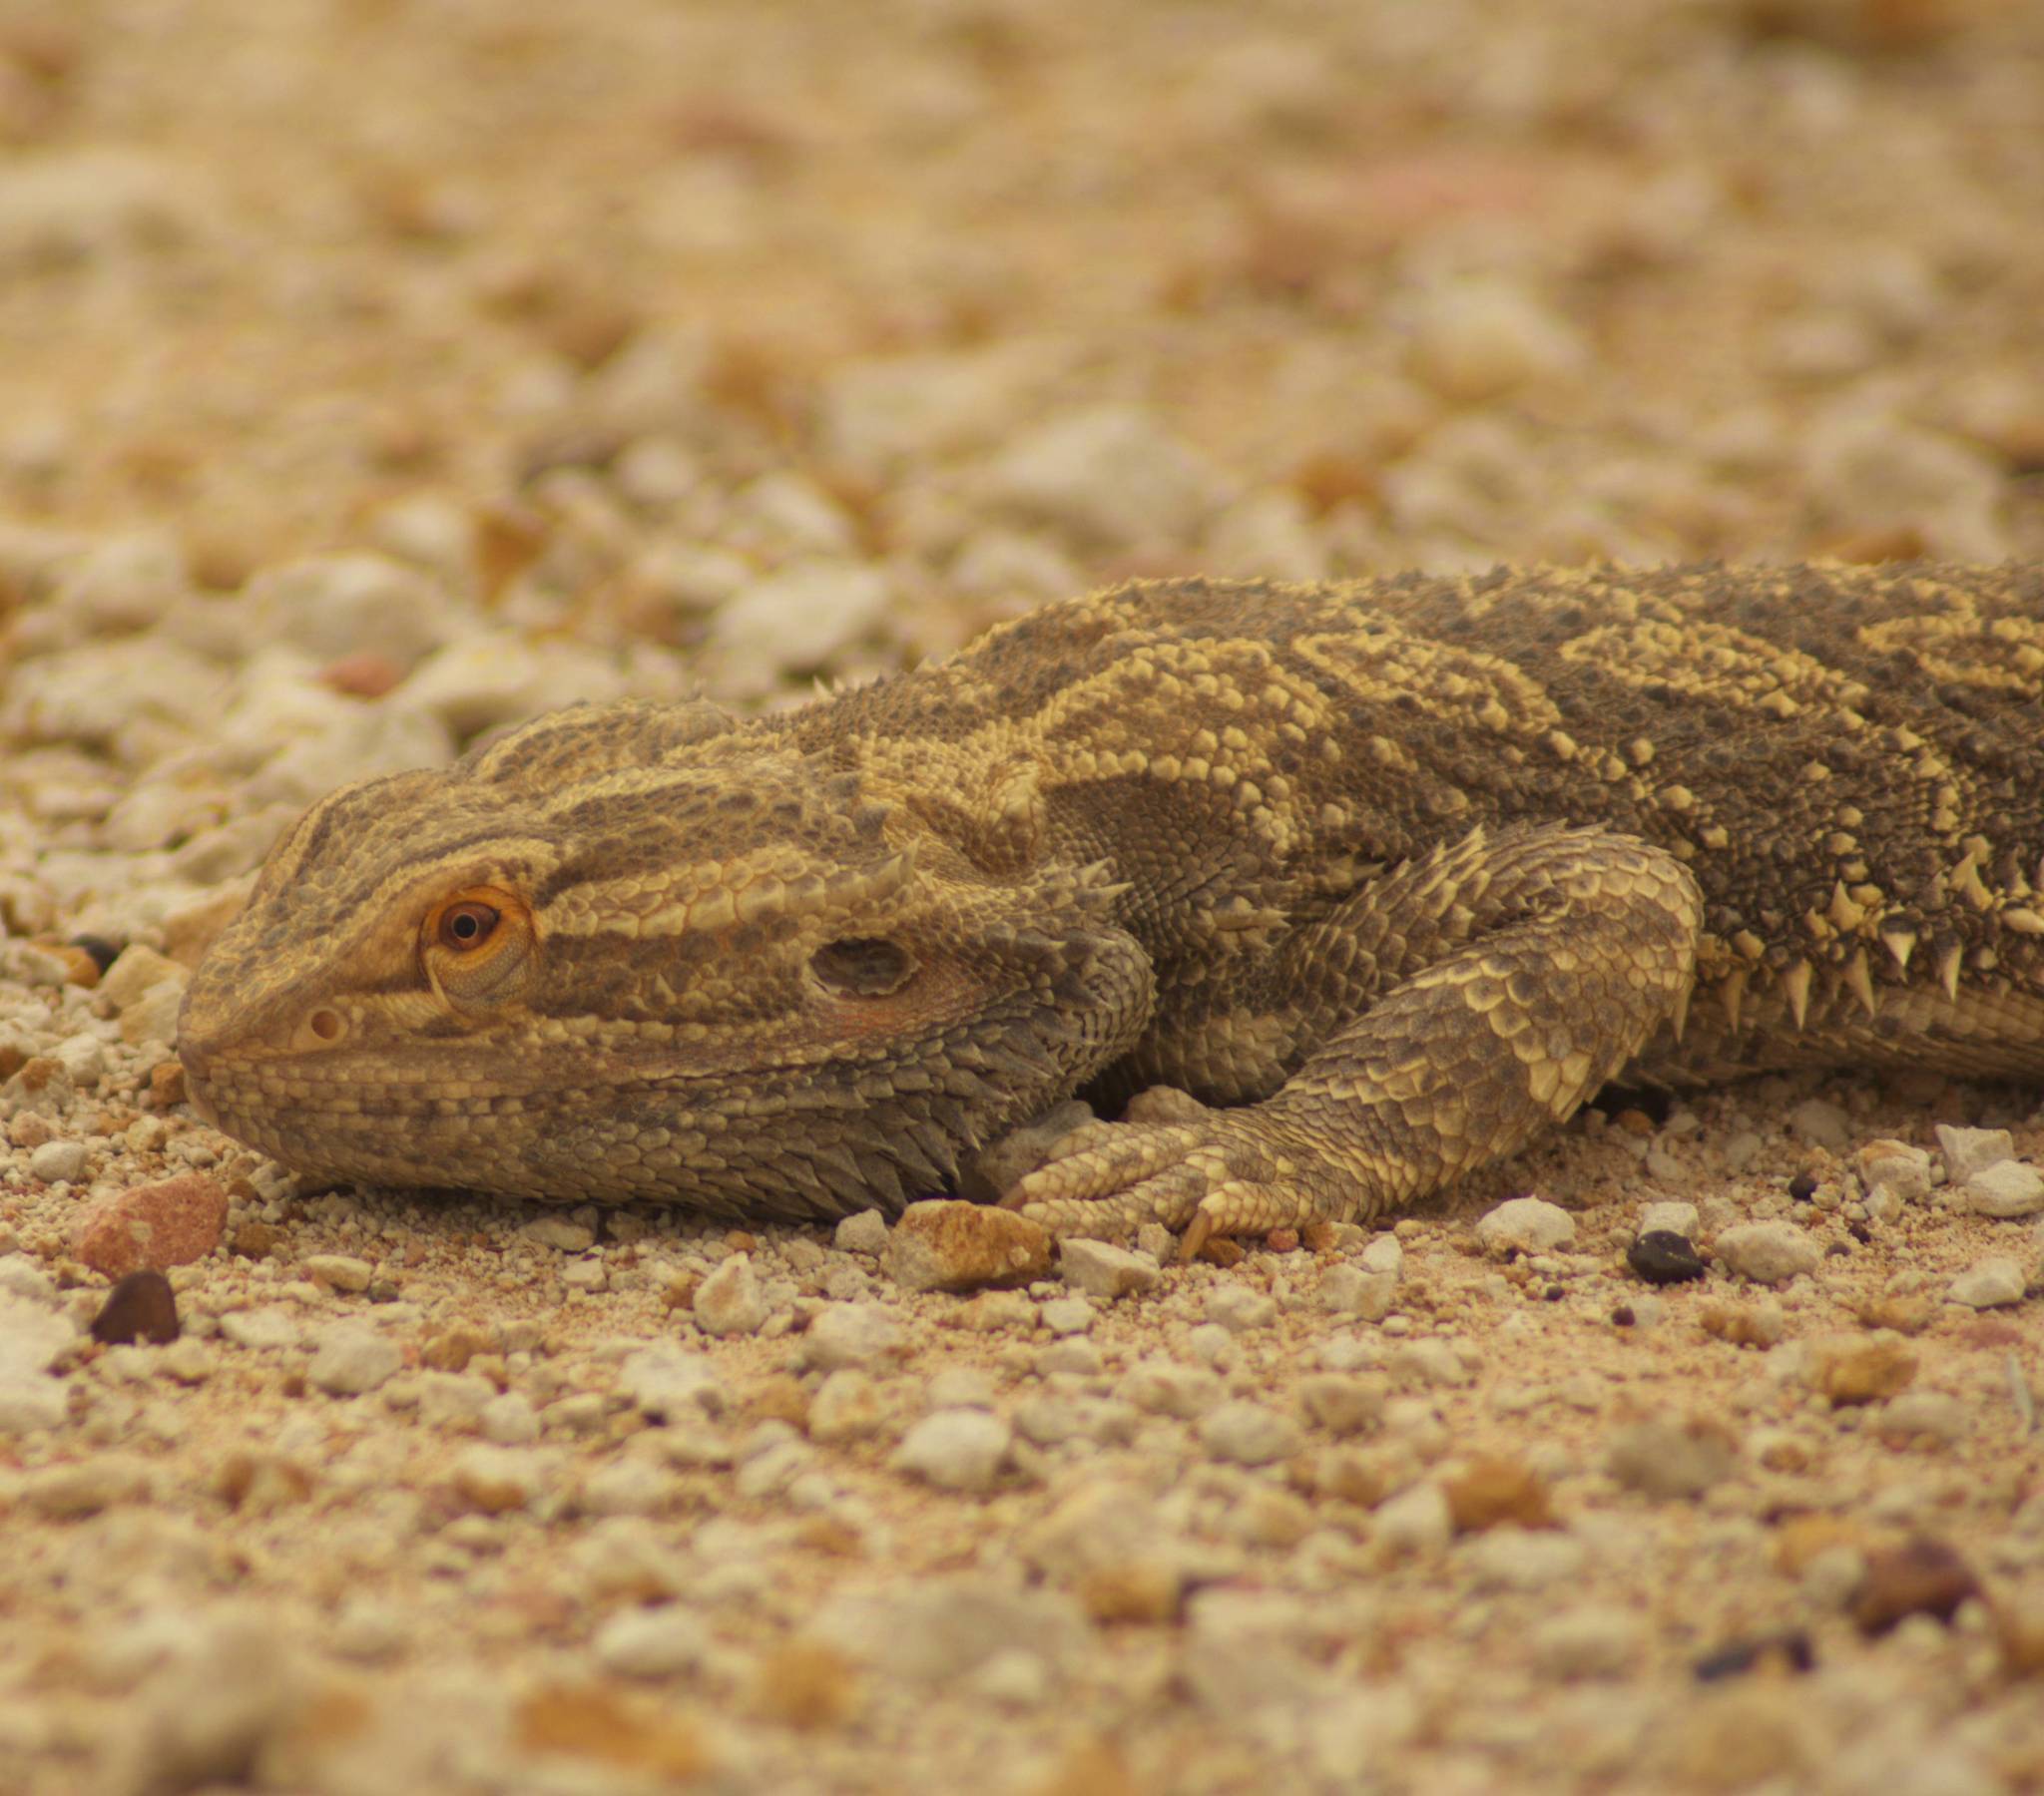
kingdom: Animalia
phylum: Chordata
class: Squamata
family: Agamidae
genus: Pogona
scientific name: Pogona vitticeps
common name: Central bearded dragon
